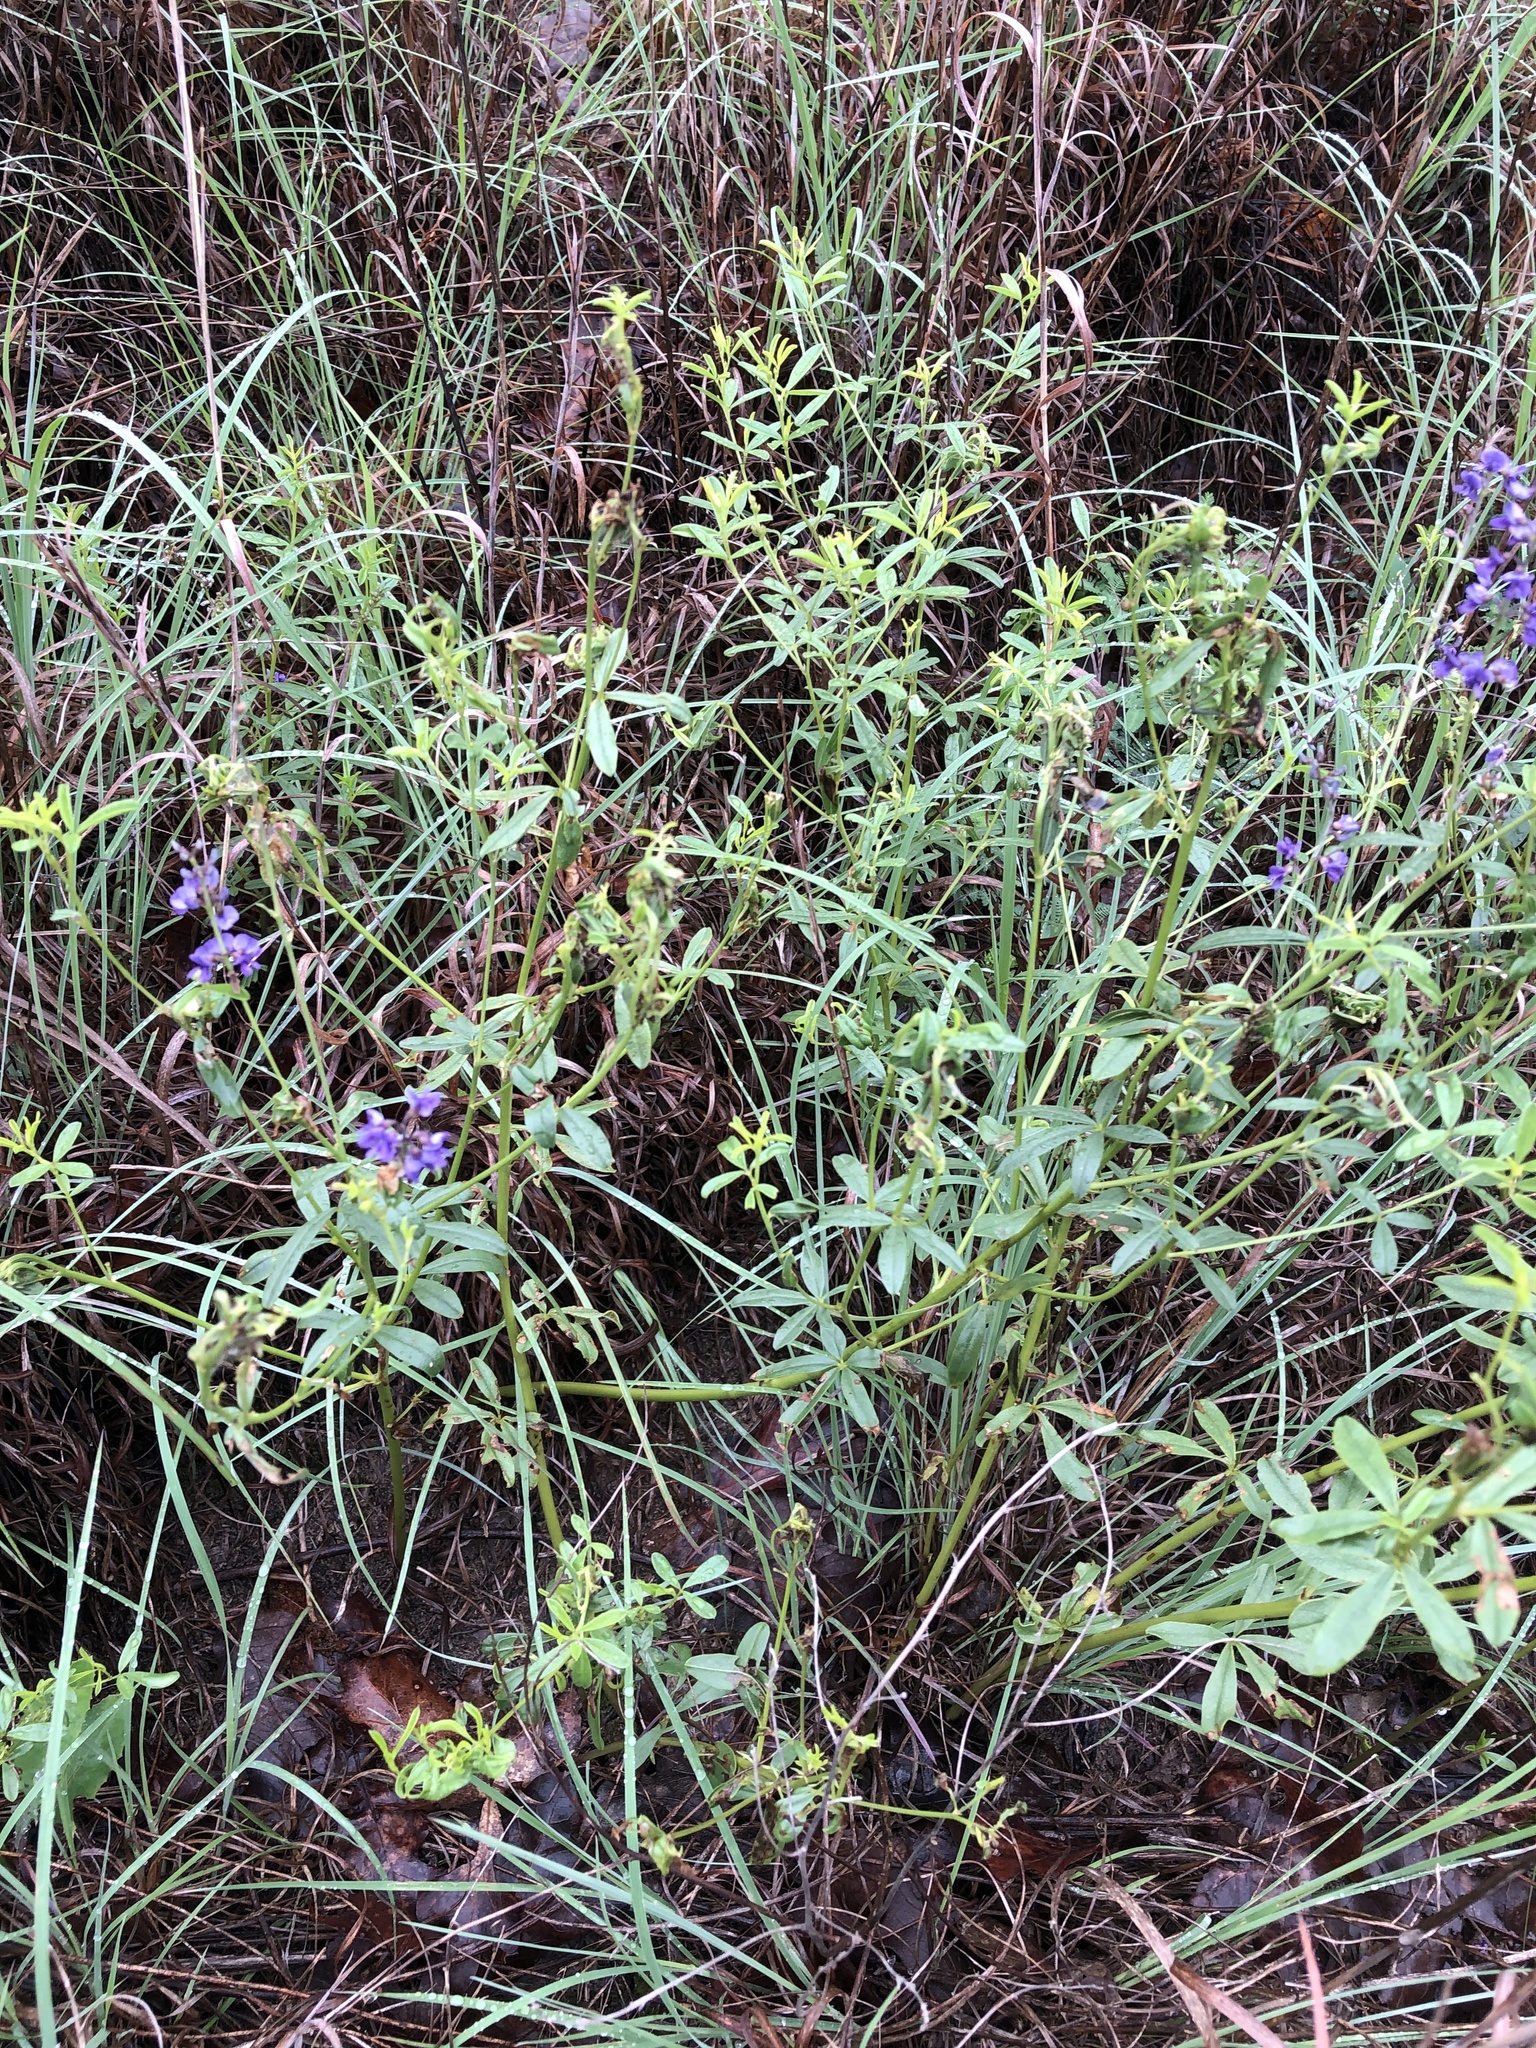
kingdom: Plantae
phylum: Tracheophyta
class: Magnoliopsida
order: Fabales
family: Fabaceae
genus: Pediomelum
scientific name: Pediomelum tenuiflorum
